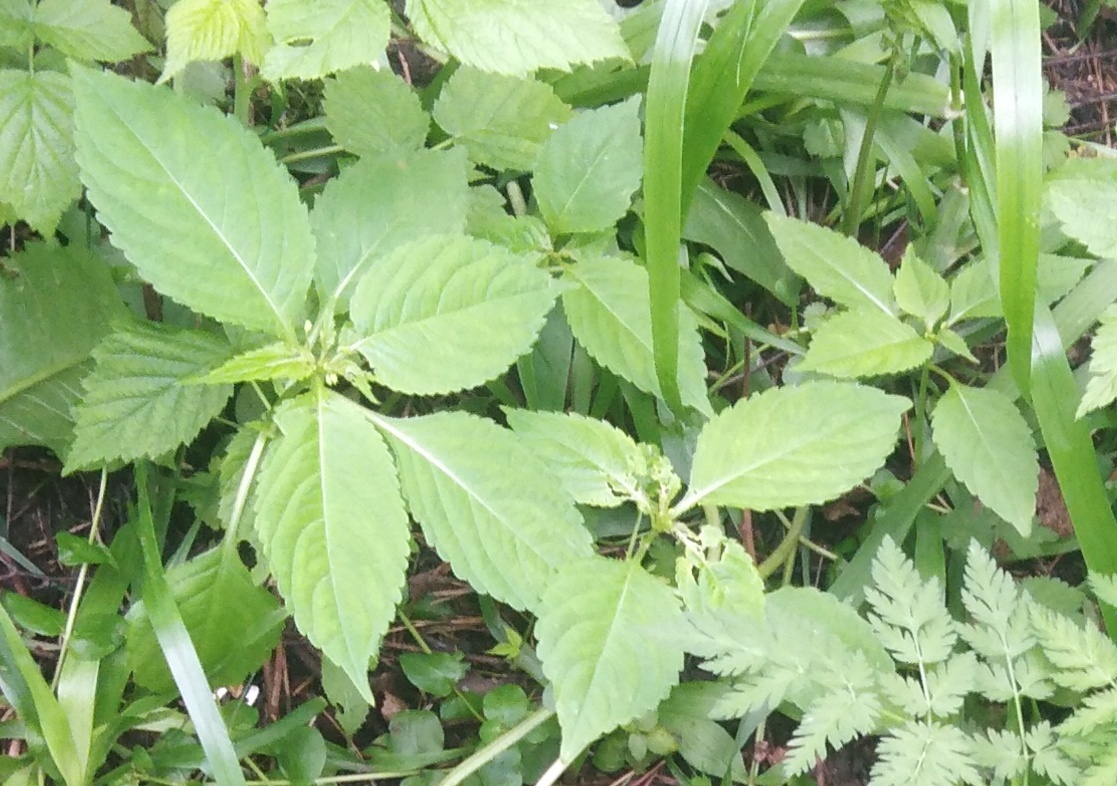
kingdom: Plantae
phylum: Tracheophyta
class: Magnoliopsida
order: Ericales
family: Balsaminaceae
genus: Impatiens
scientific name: Impatiens parviflora
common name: Small balsam
